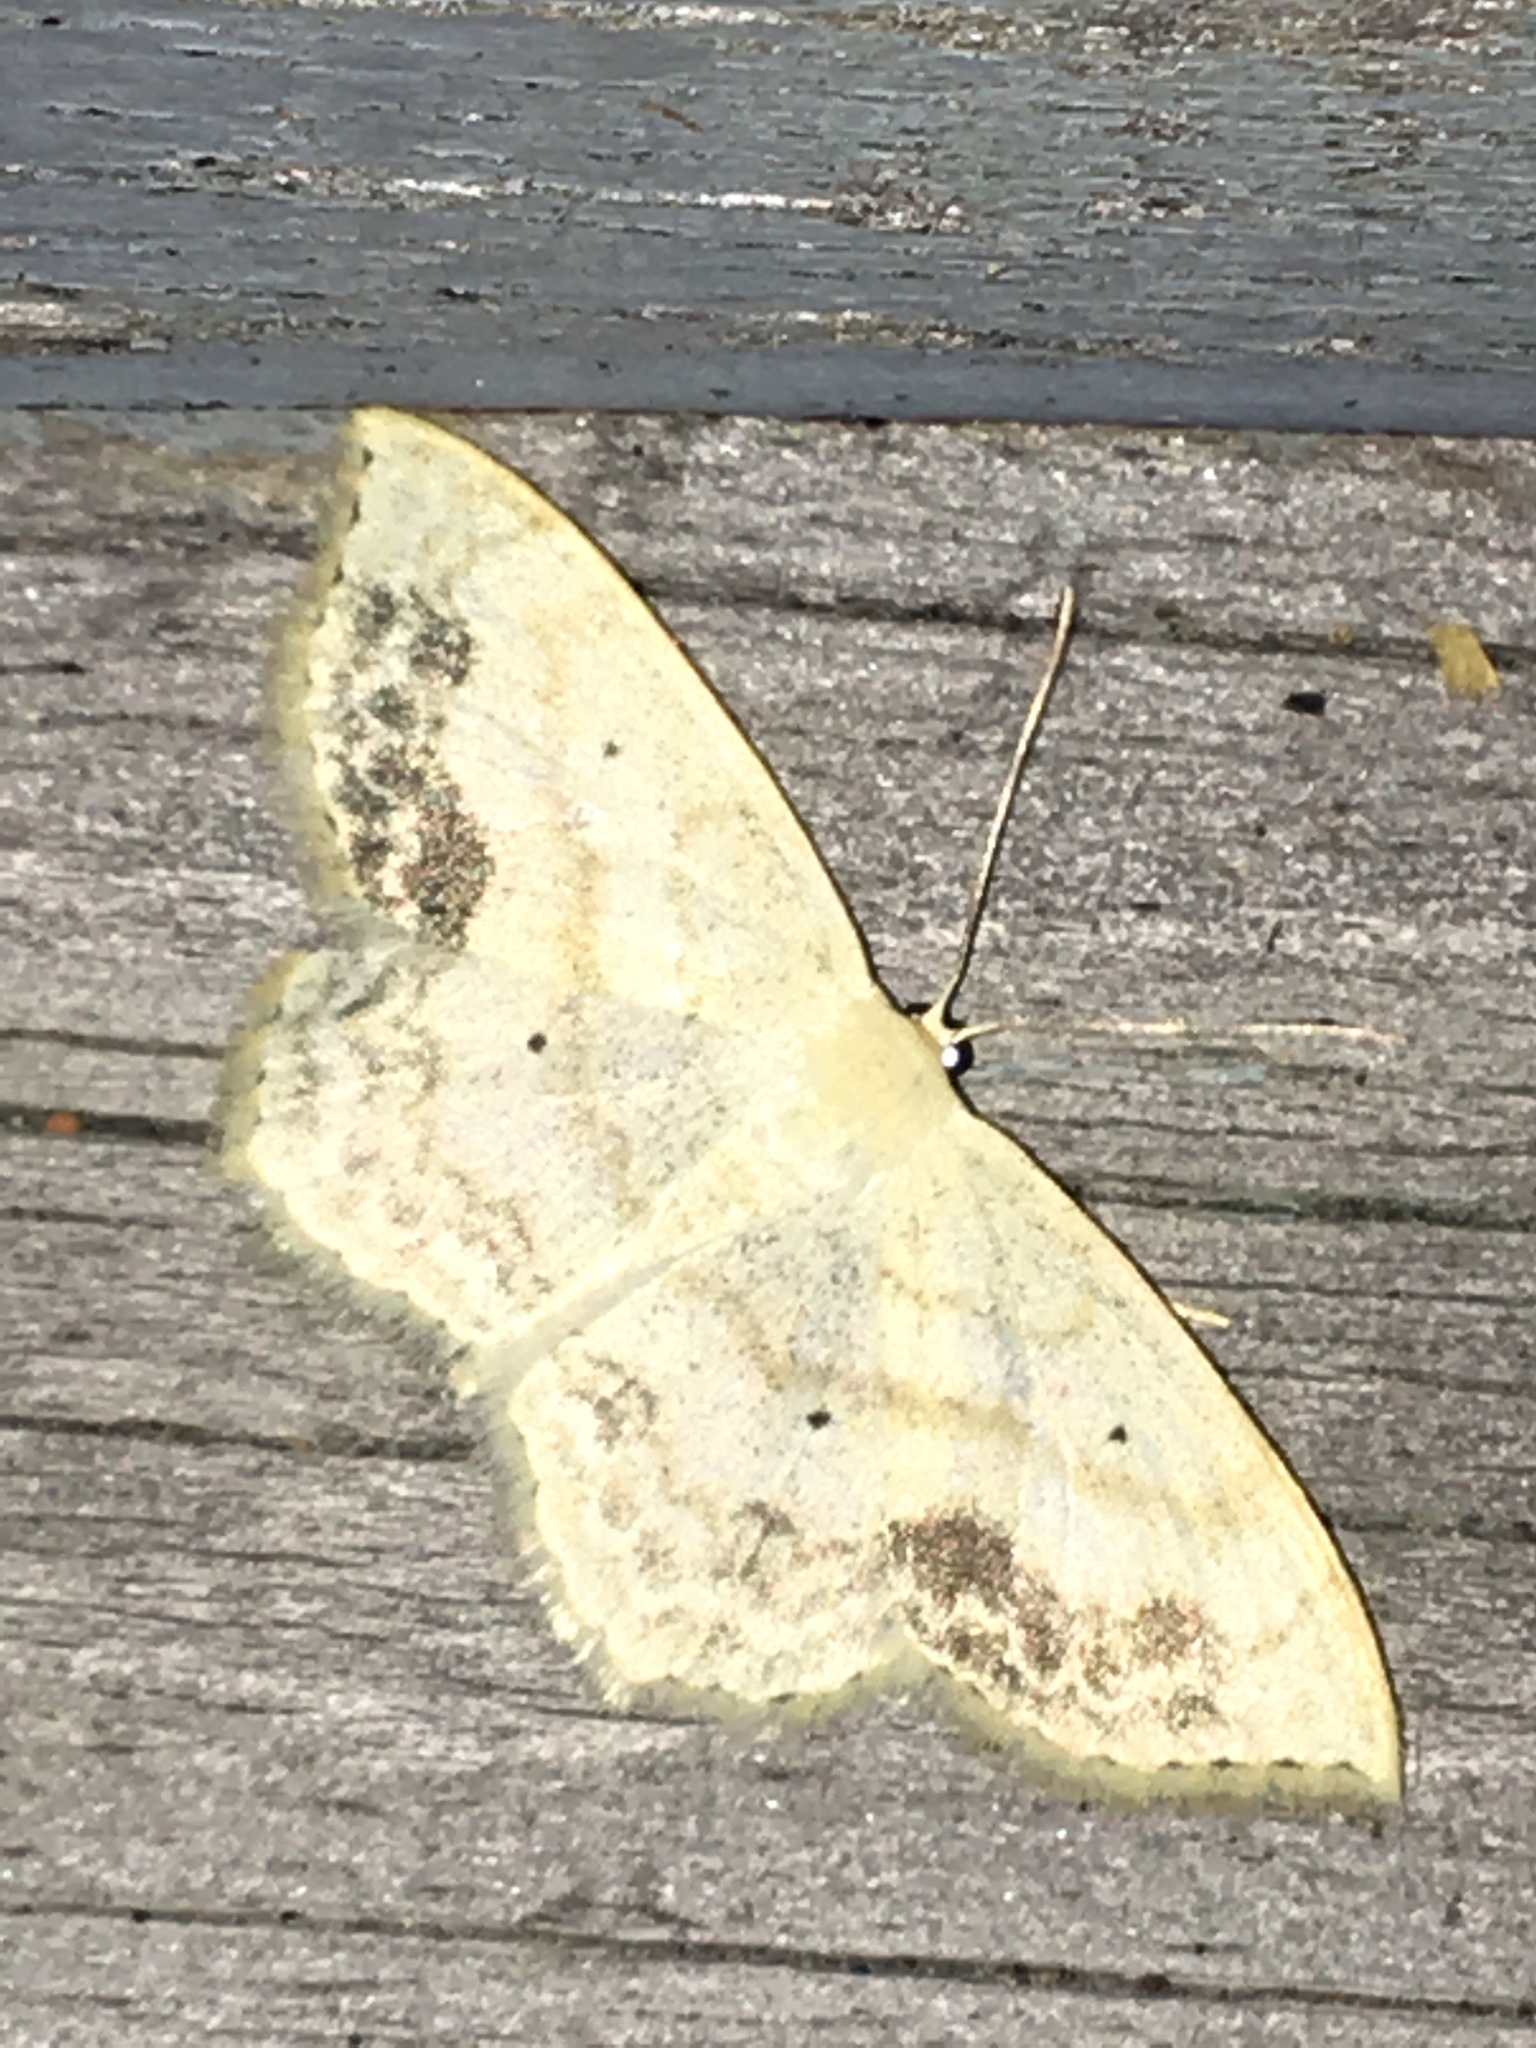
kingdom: Animalia
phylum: Arthropoda
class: Insecta
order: Lepidoptera
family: Geometridae
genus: Scopula
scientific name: Scopula limboundata
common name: Large lace border
